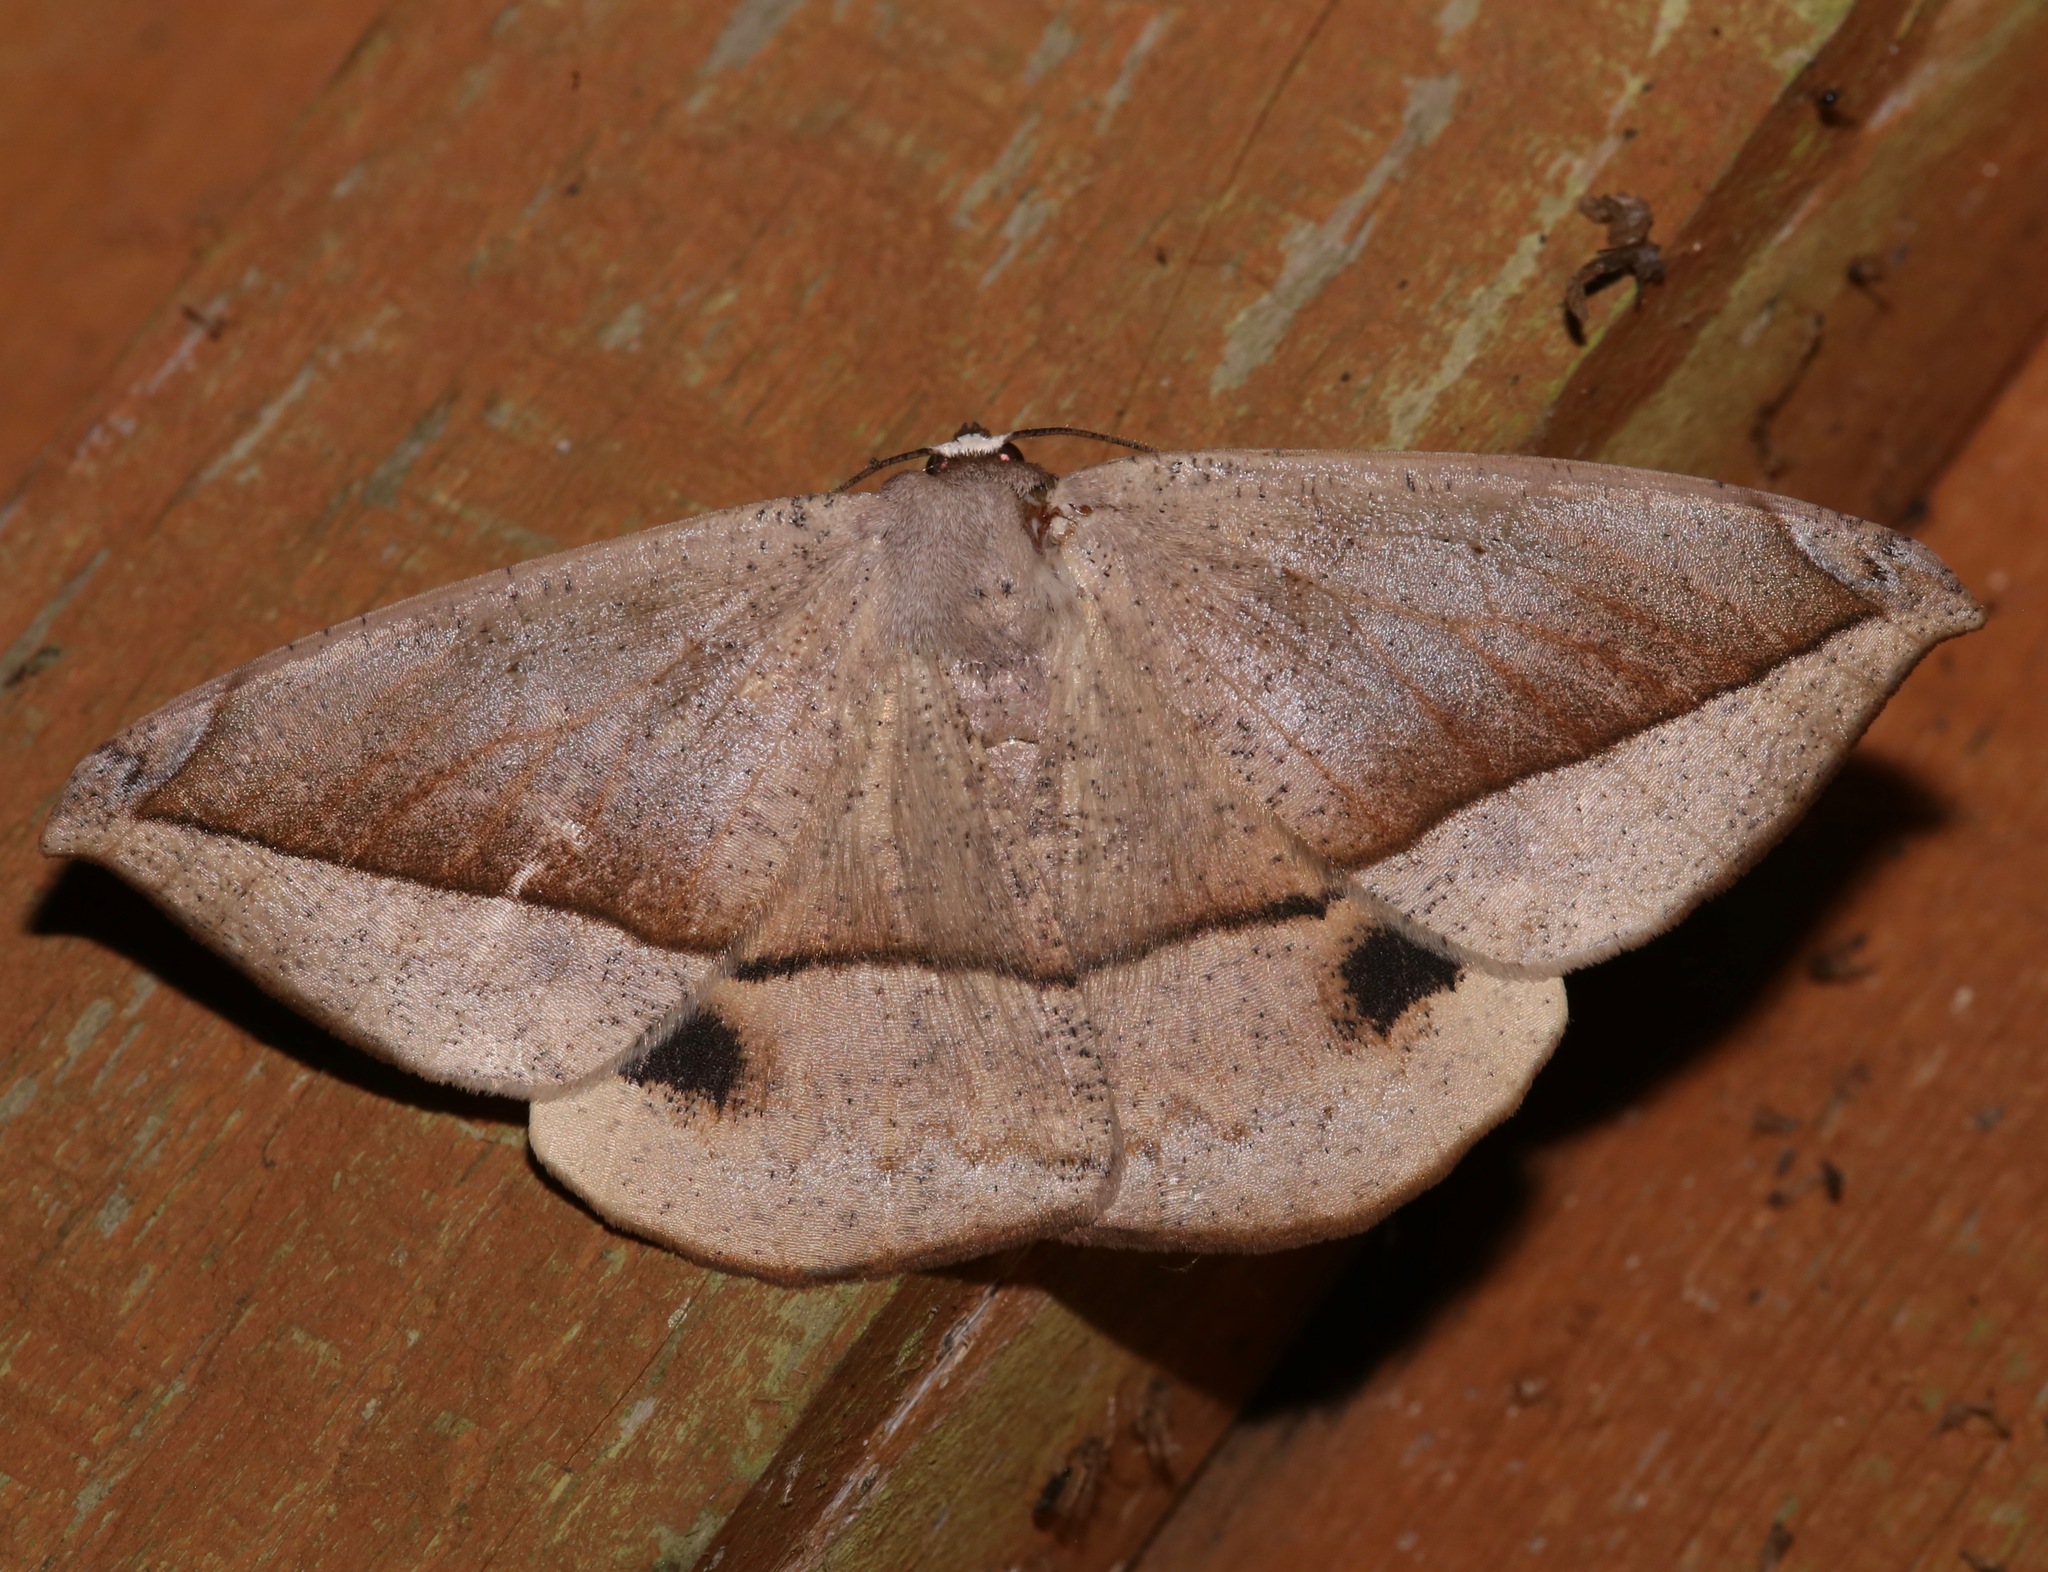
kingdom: Animalia
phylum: Arthropoda
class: Insecta
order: Lepidoptera
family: Geometridae
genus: Oxydia
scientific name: Oxydia vesulia
